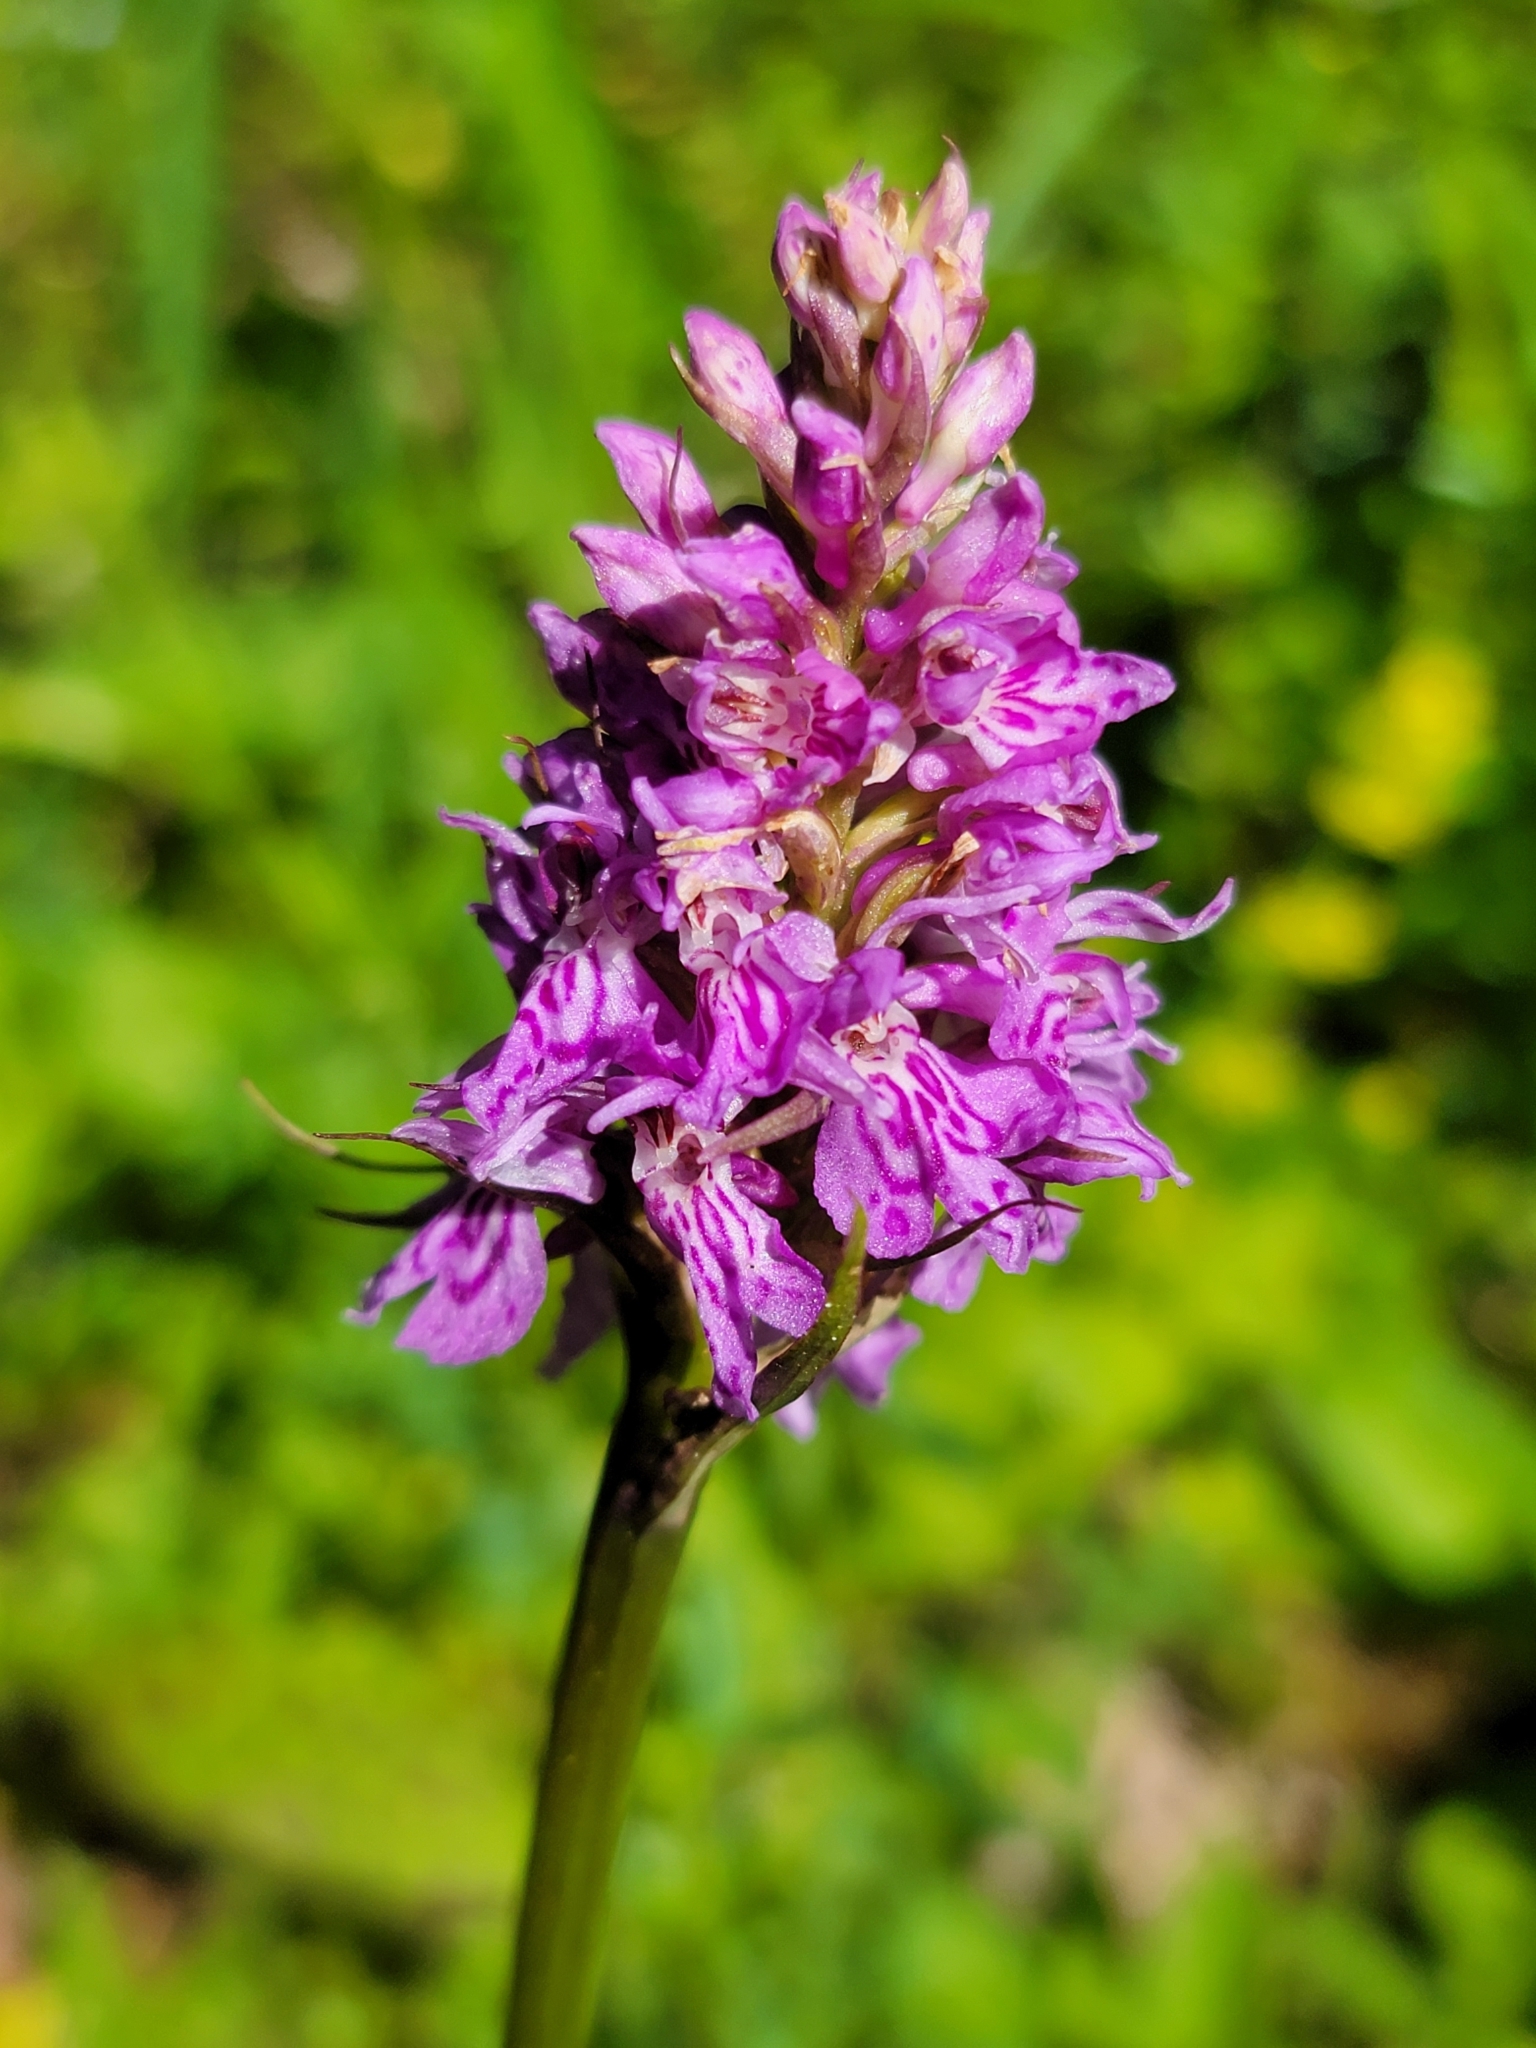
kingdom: Plantae
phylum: Tracheophyta
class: Liliopsida
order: Asparagales
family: Orchidaceae
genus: Dactylorhiza
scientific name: Dactylorhiza maculata
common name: Heath spotted-orchid
